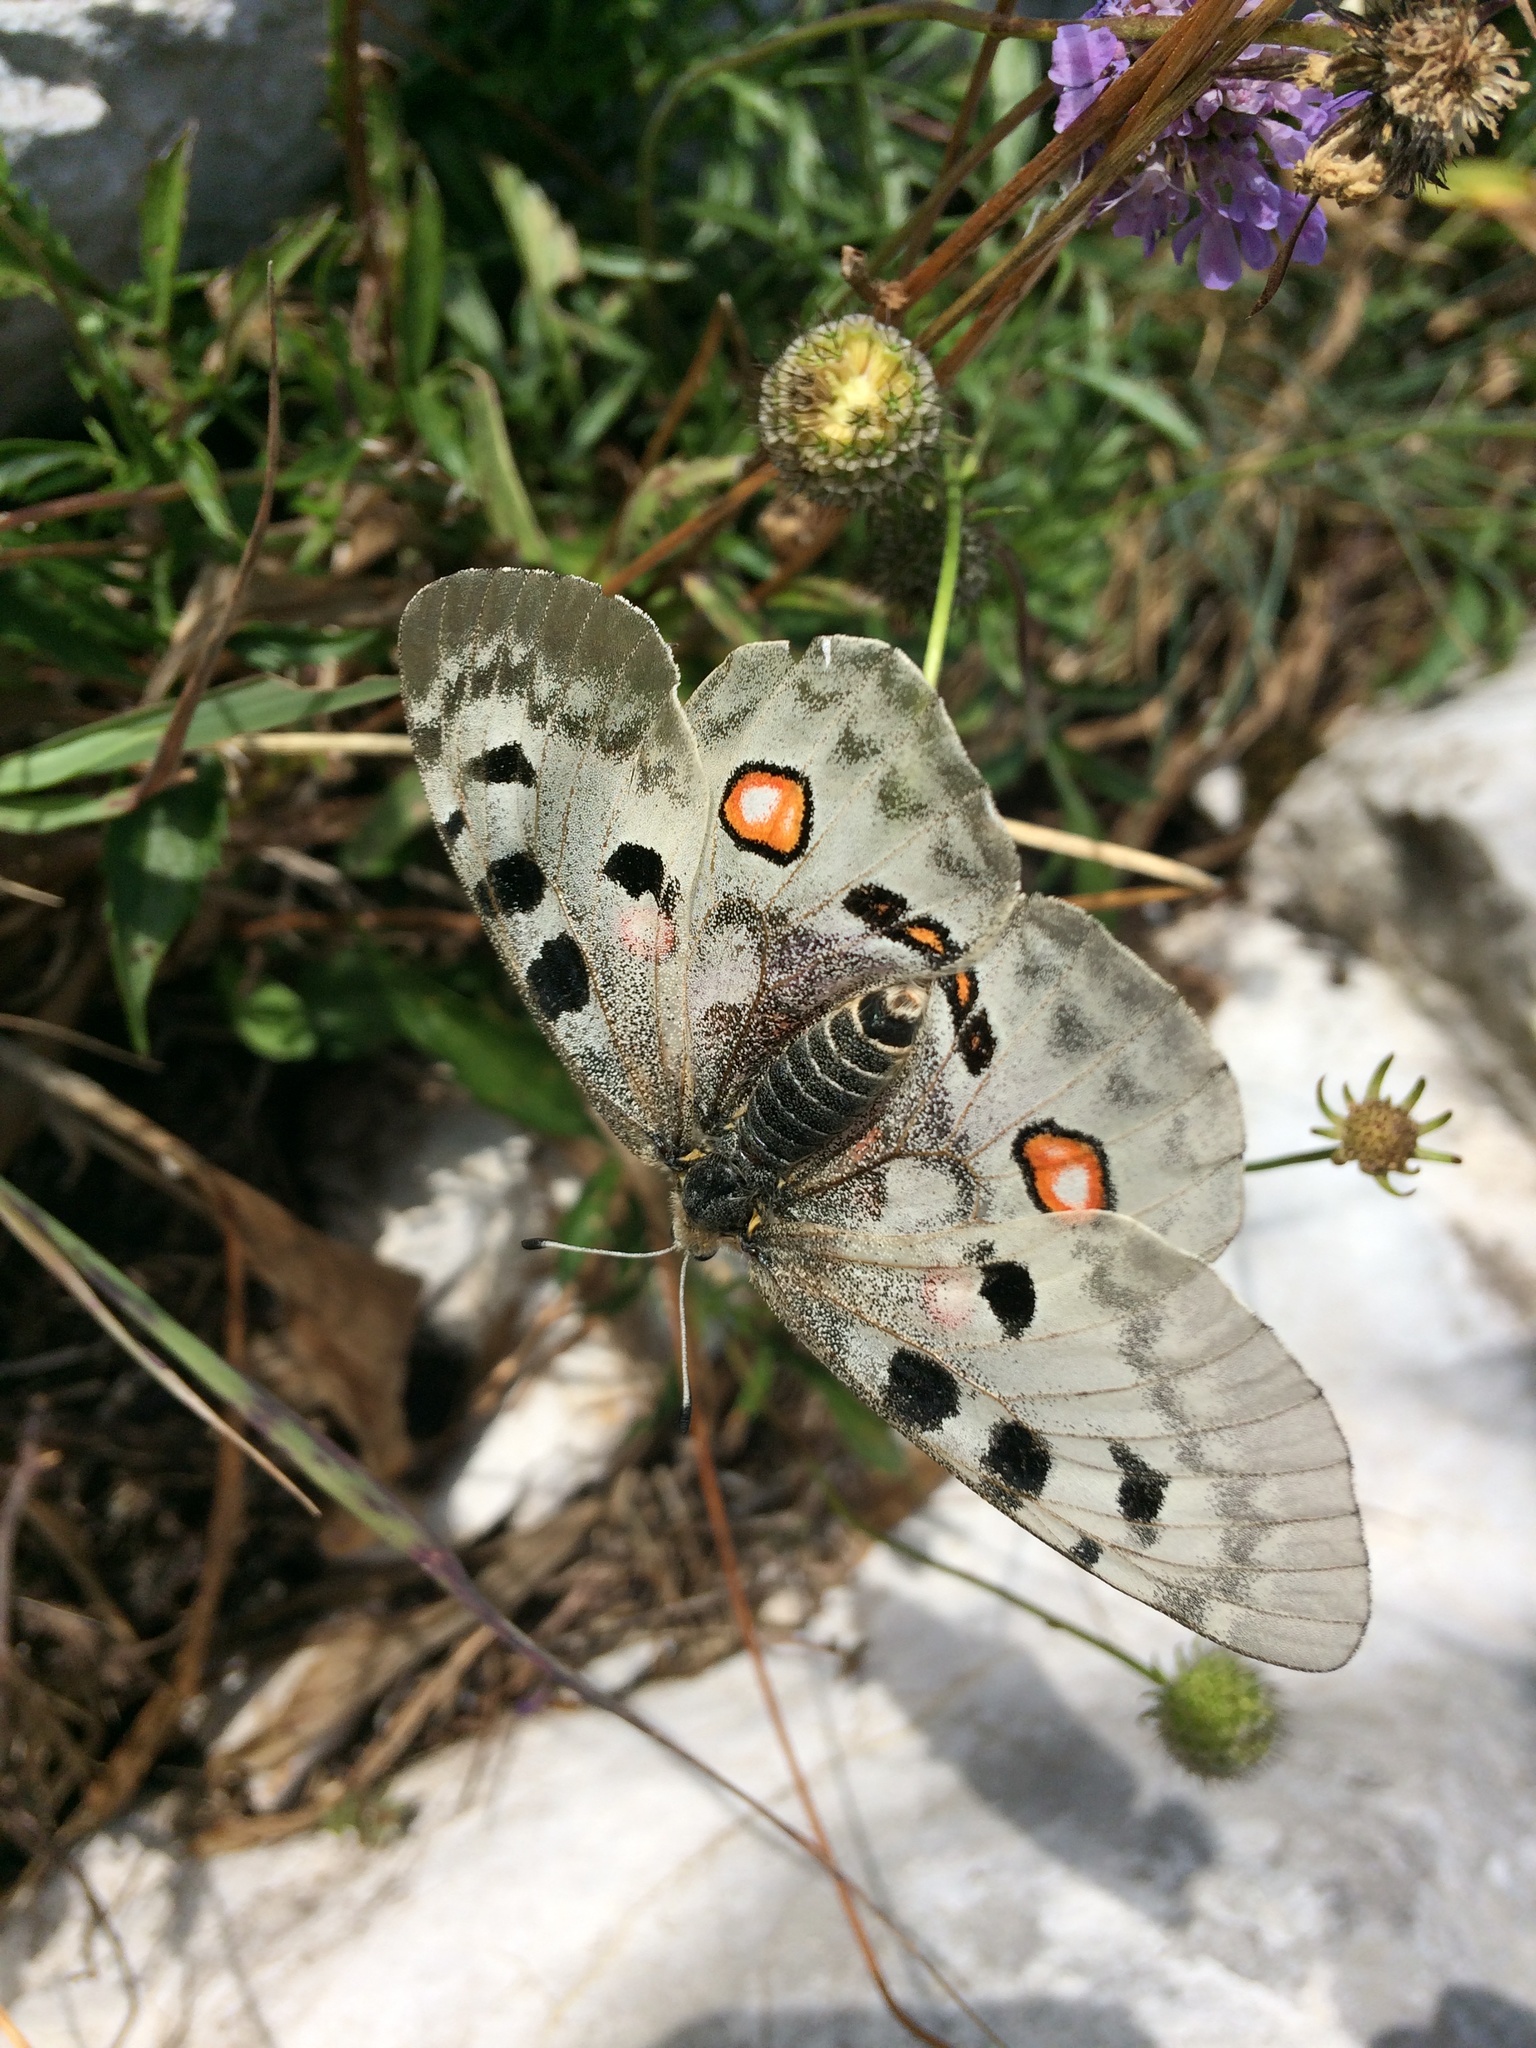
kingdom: Animalia
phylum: Arthropoda
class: Insecta
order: Lepidoptera
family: Papilionidae
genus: Parnassius
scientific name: Parnassius apollo
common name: Apollo
